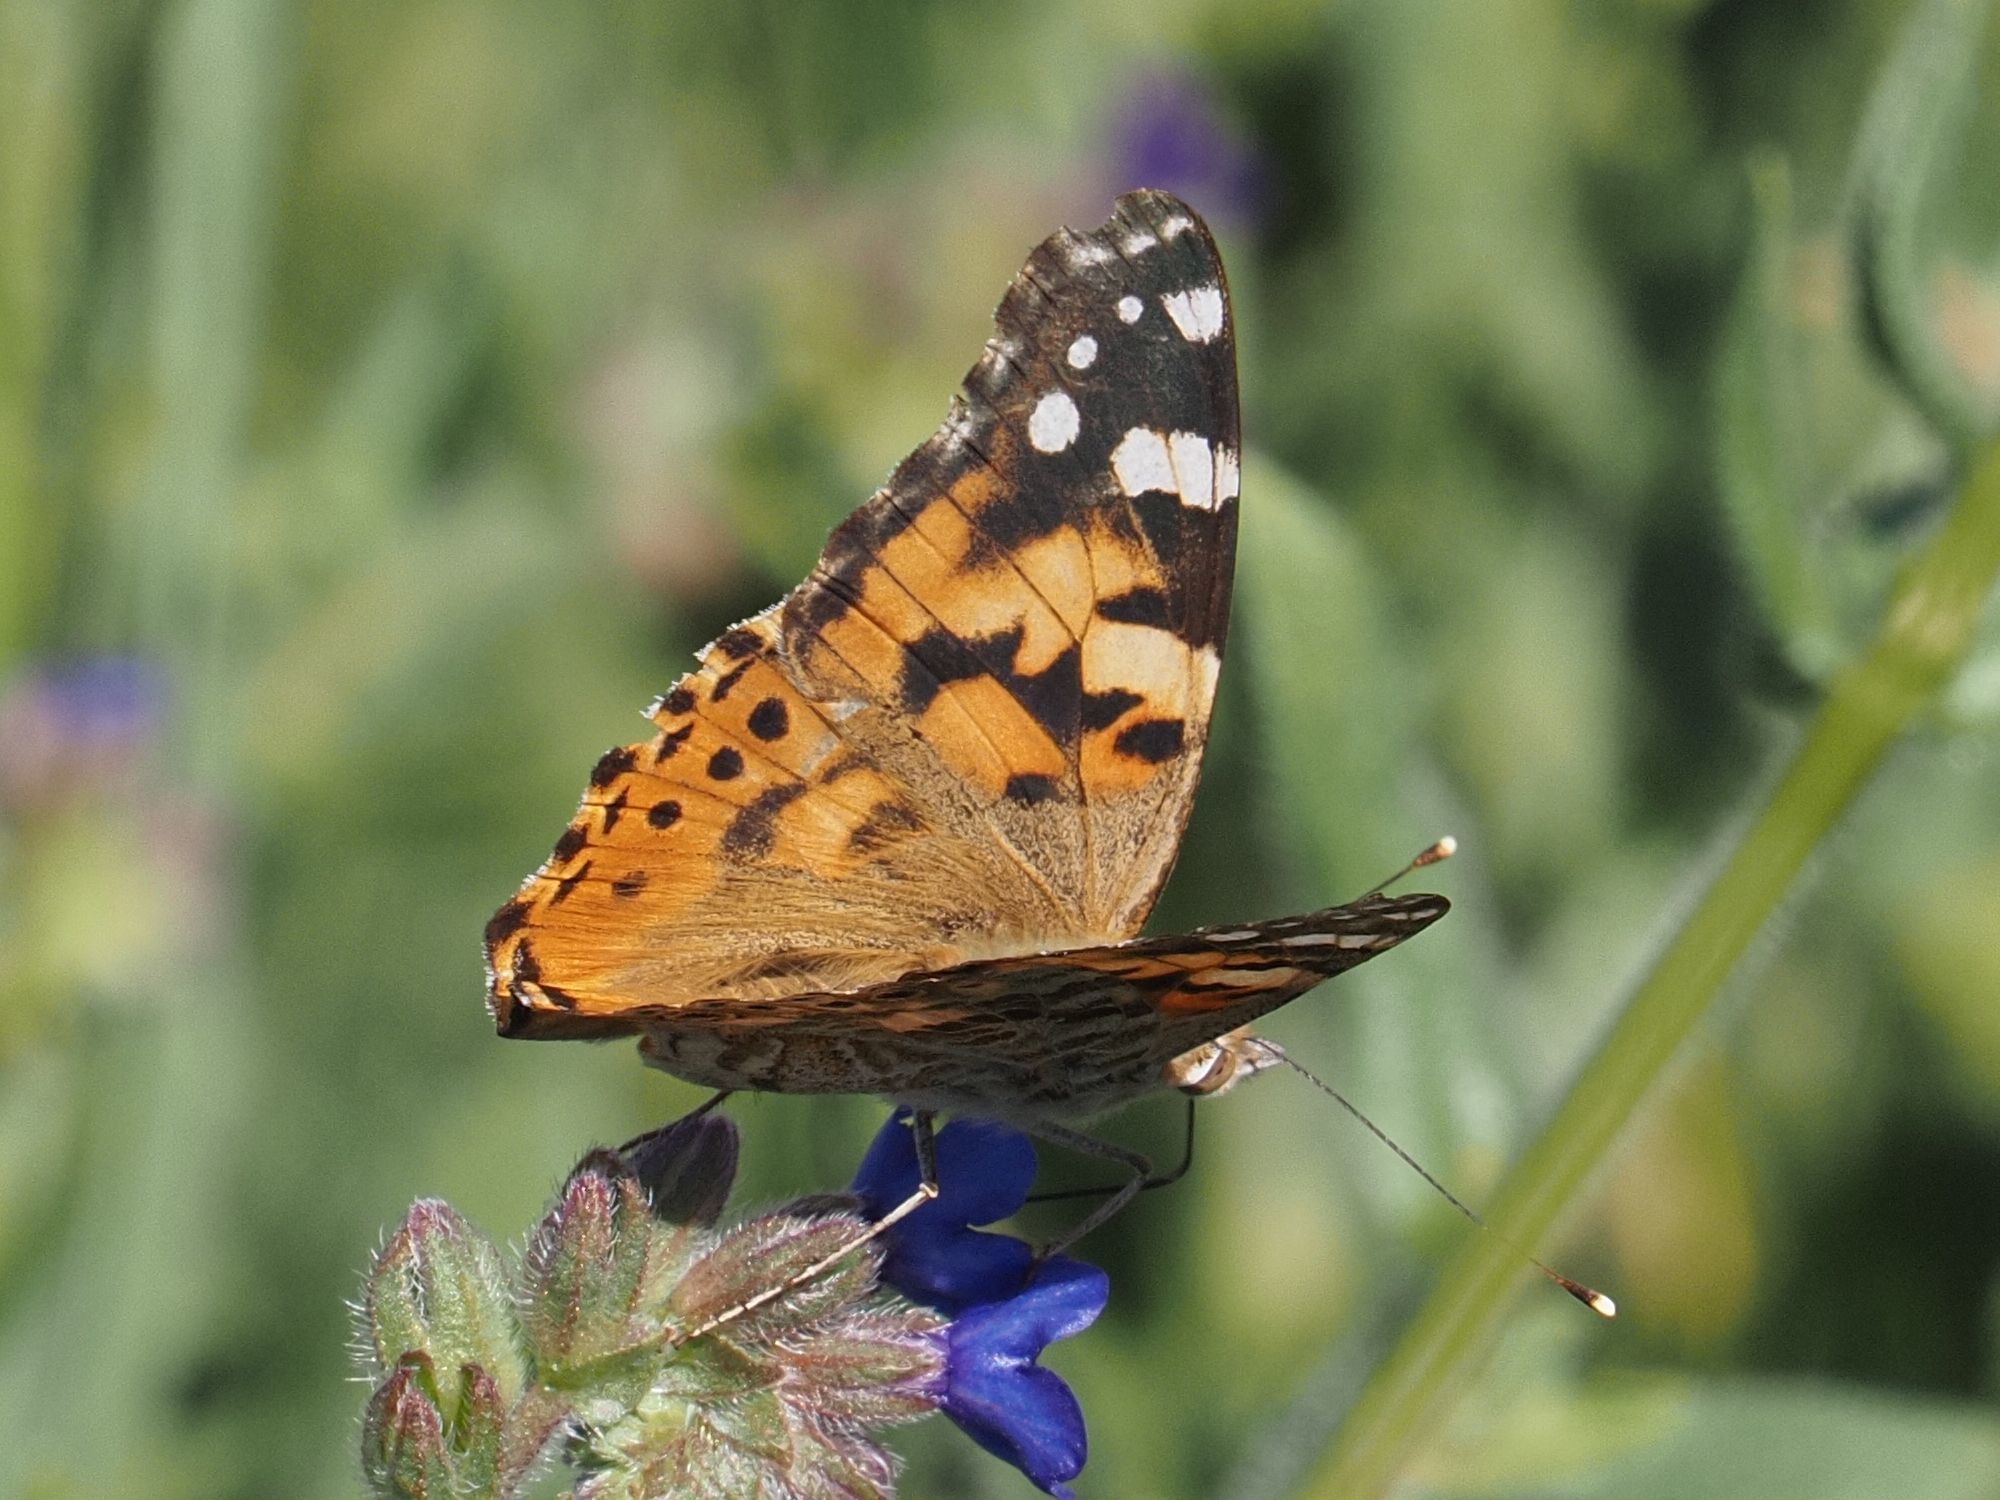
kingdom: Animalia
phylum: Arthropoda
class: Insecta
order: Lepidoptera
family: Nymphalidae
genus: Vanessa
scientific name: Vanessa cardui
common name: Painted lady
